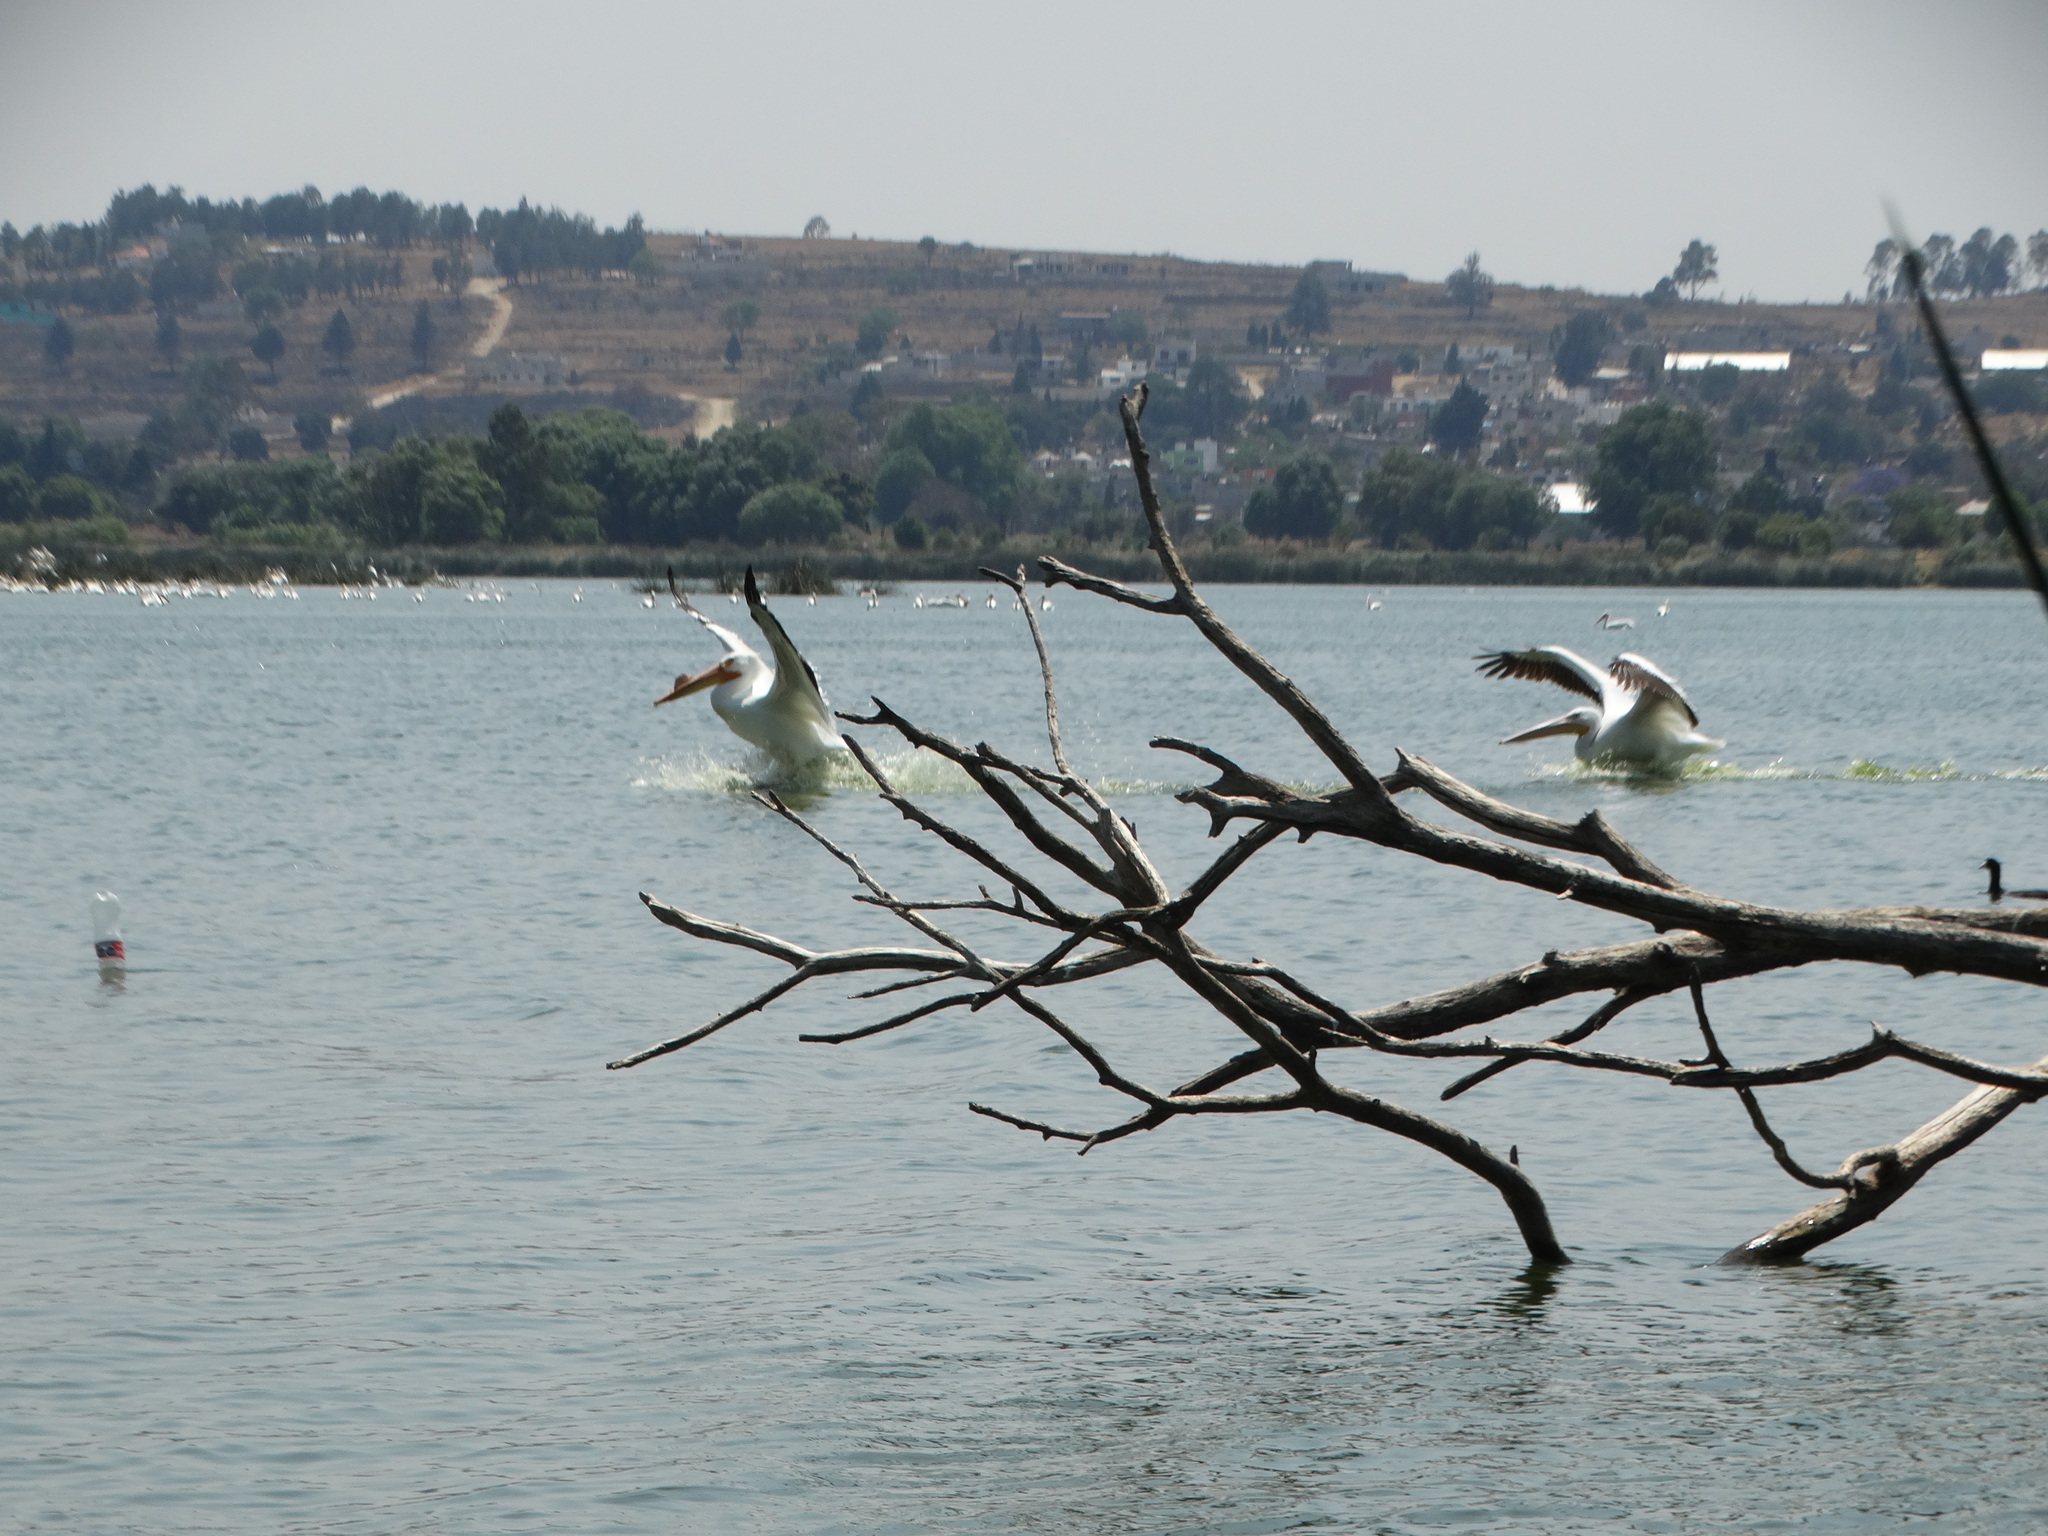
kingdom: Animalia
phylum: Chordata
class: Aves
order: Pelecaniformes
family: Pelecanidae
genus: Pelecanus
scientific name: Pelecanus erythrorhynchos
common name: American white pelican
